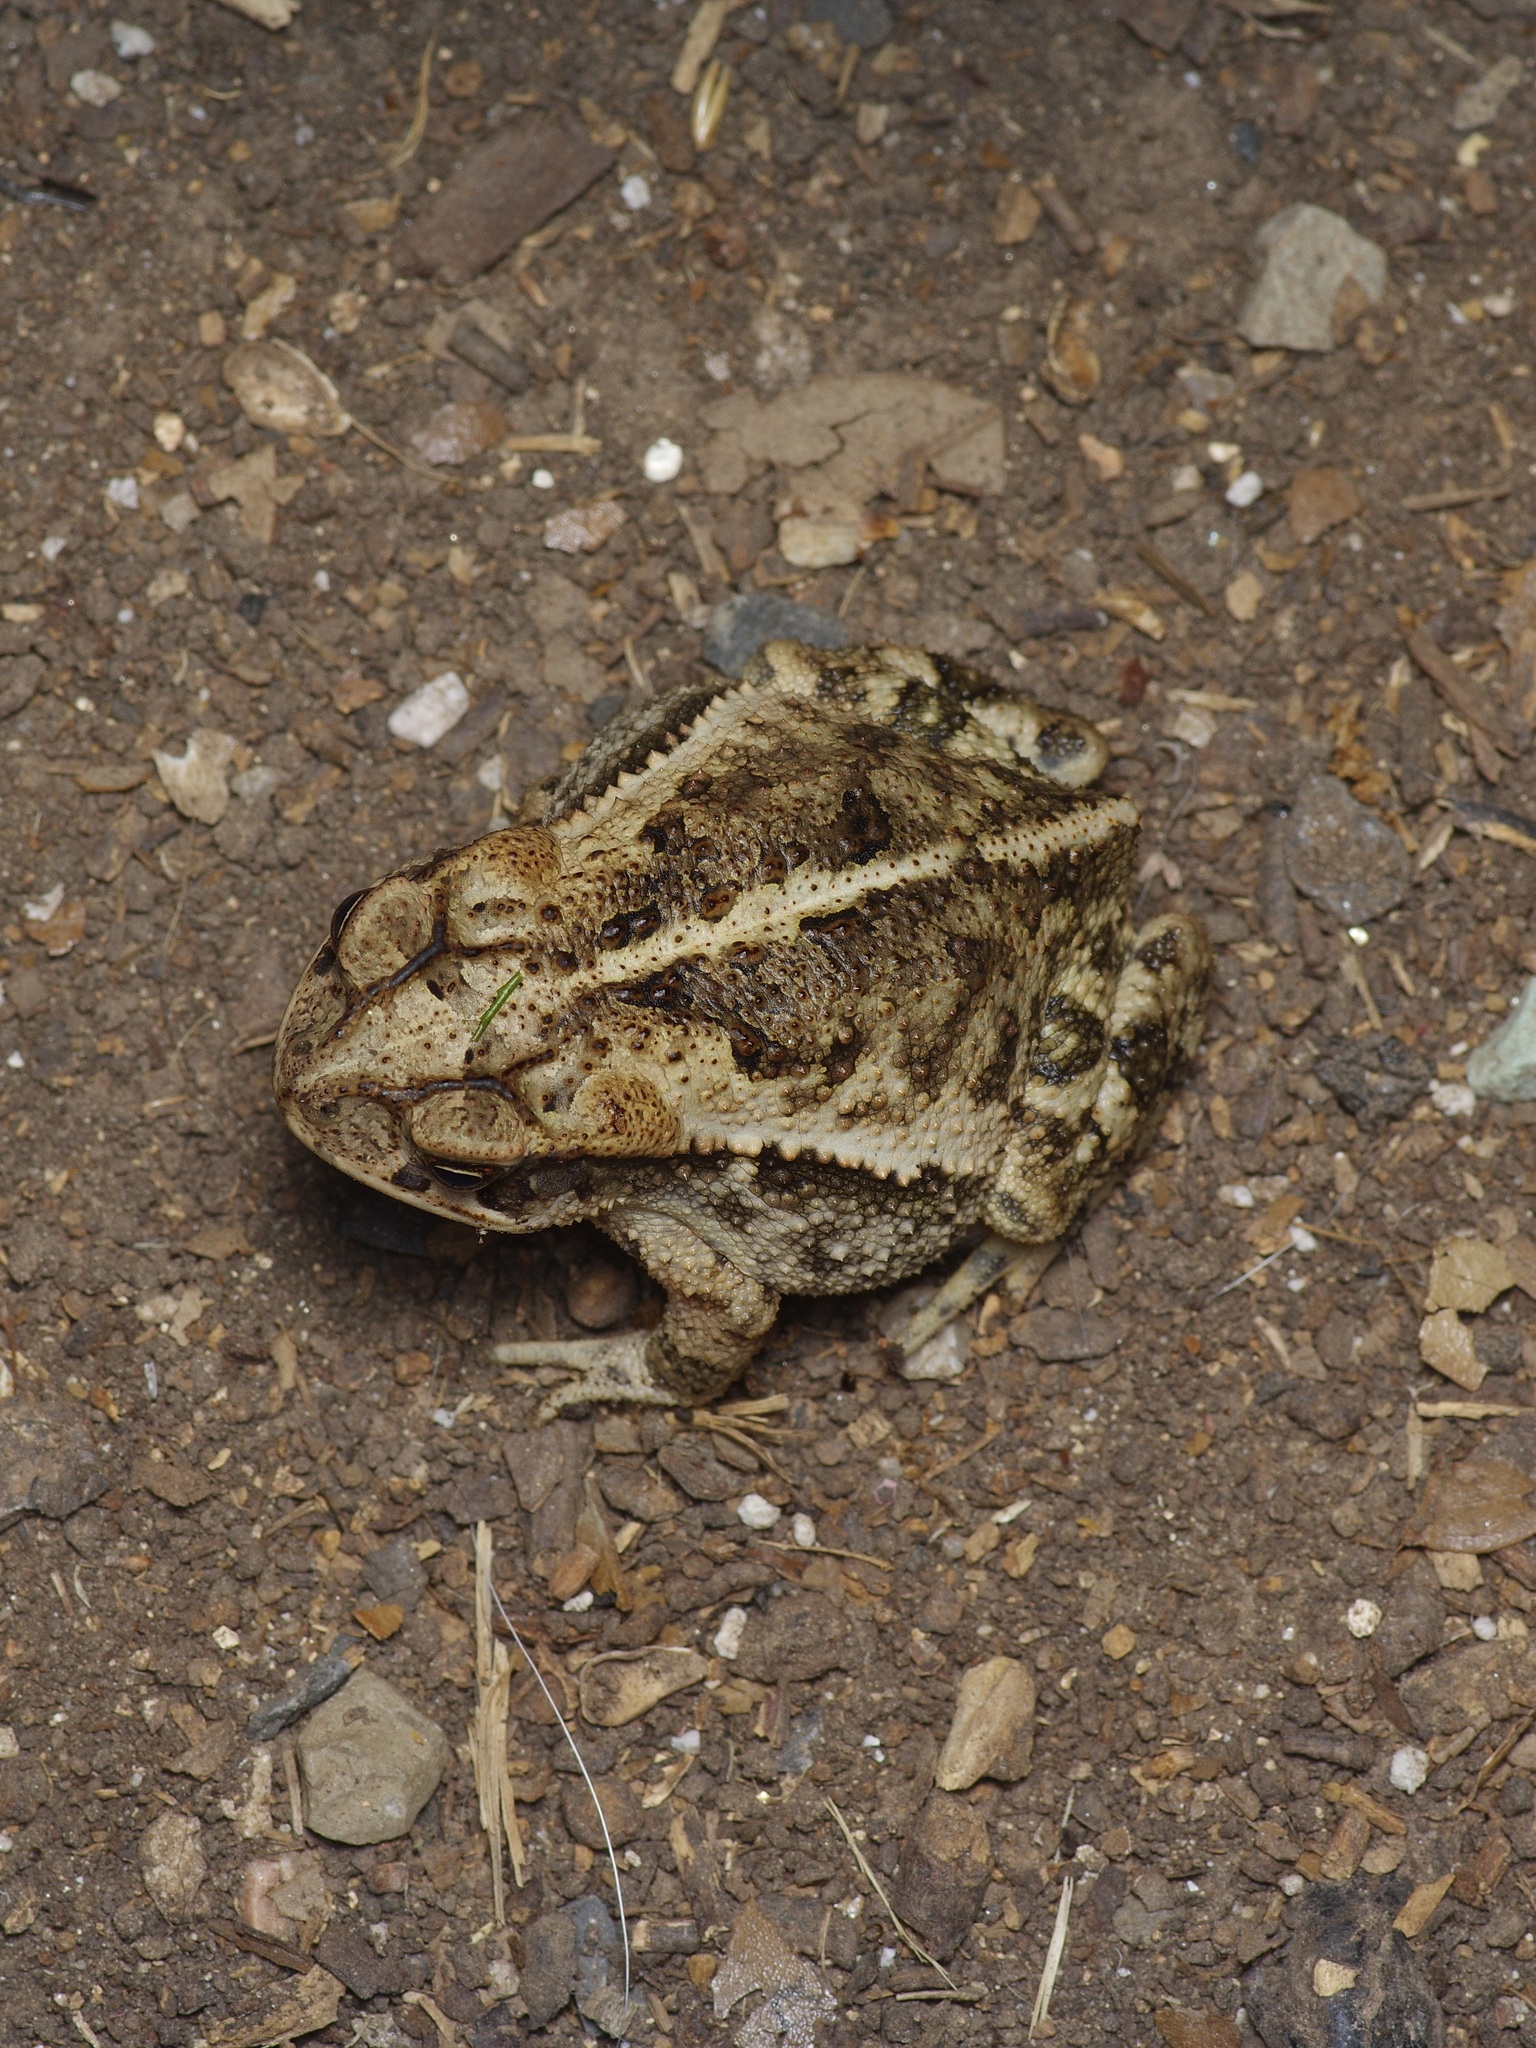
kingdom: Animalia
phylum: Chordata
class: Amphibia
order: Anura
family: Bufonidae
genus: Incilius
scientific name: Incilius nebulifer
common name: Gulf coast toad
